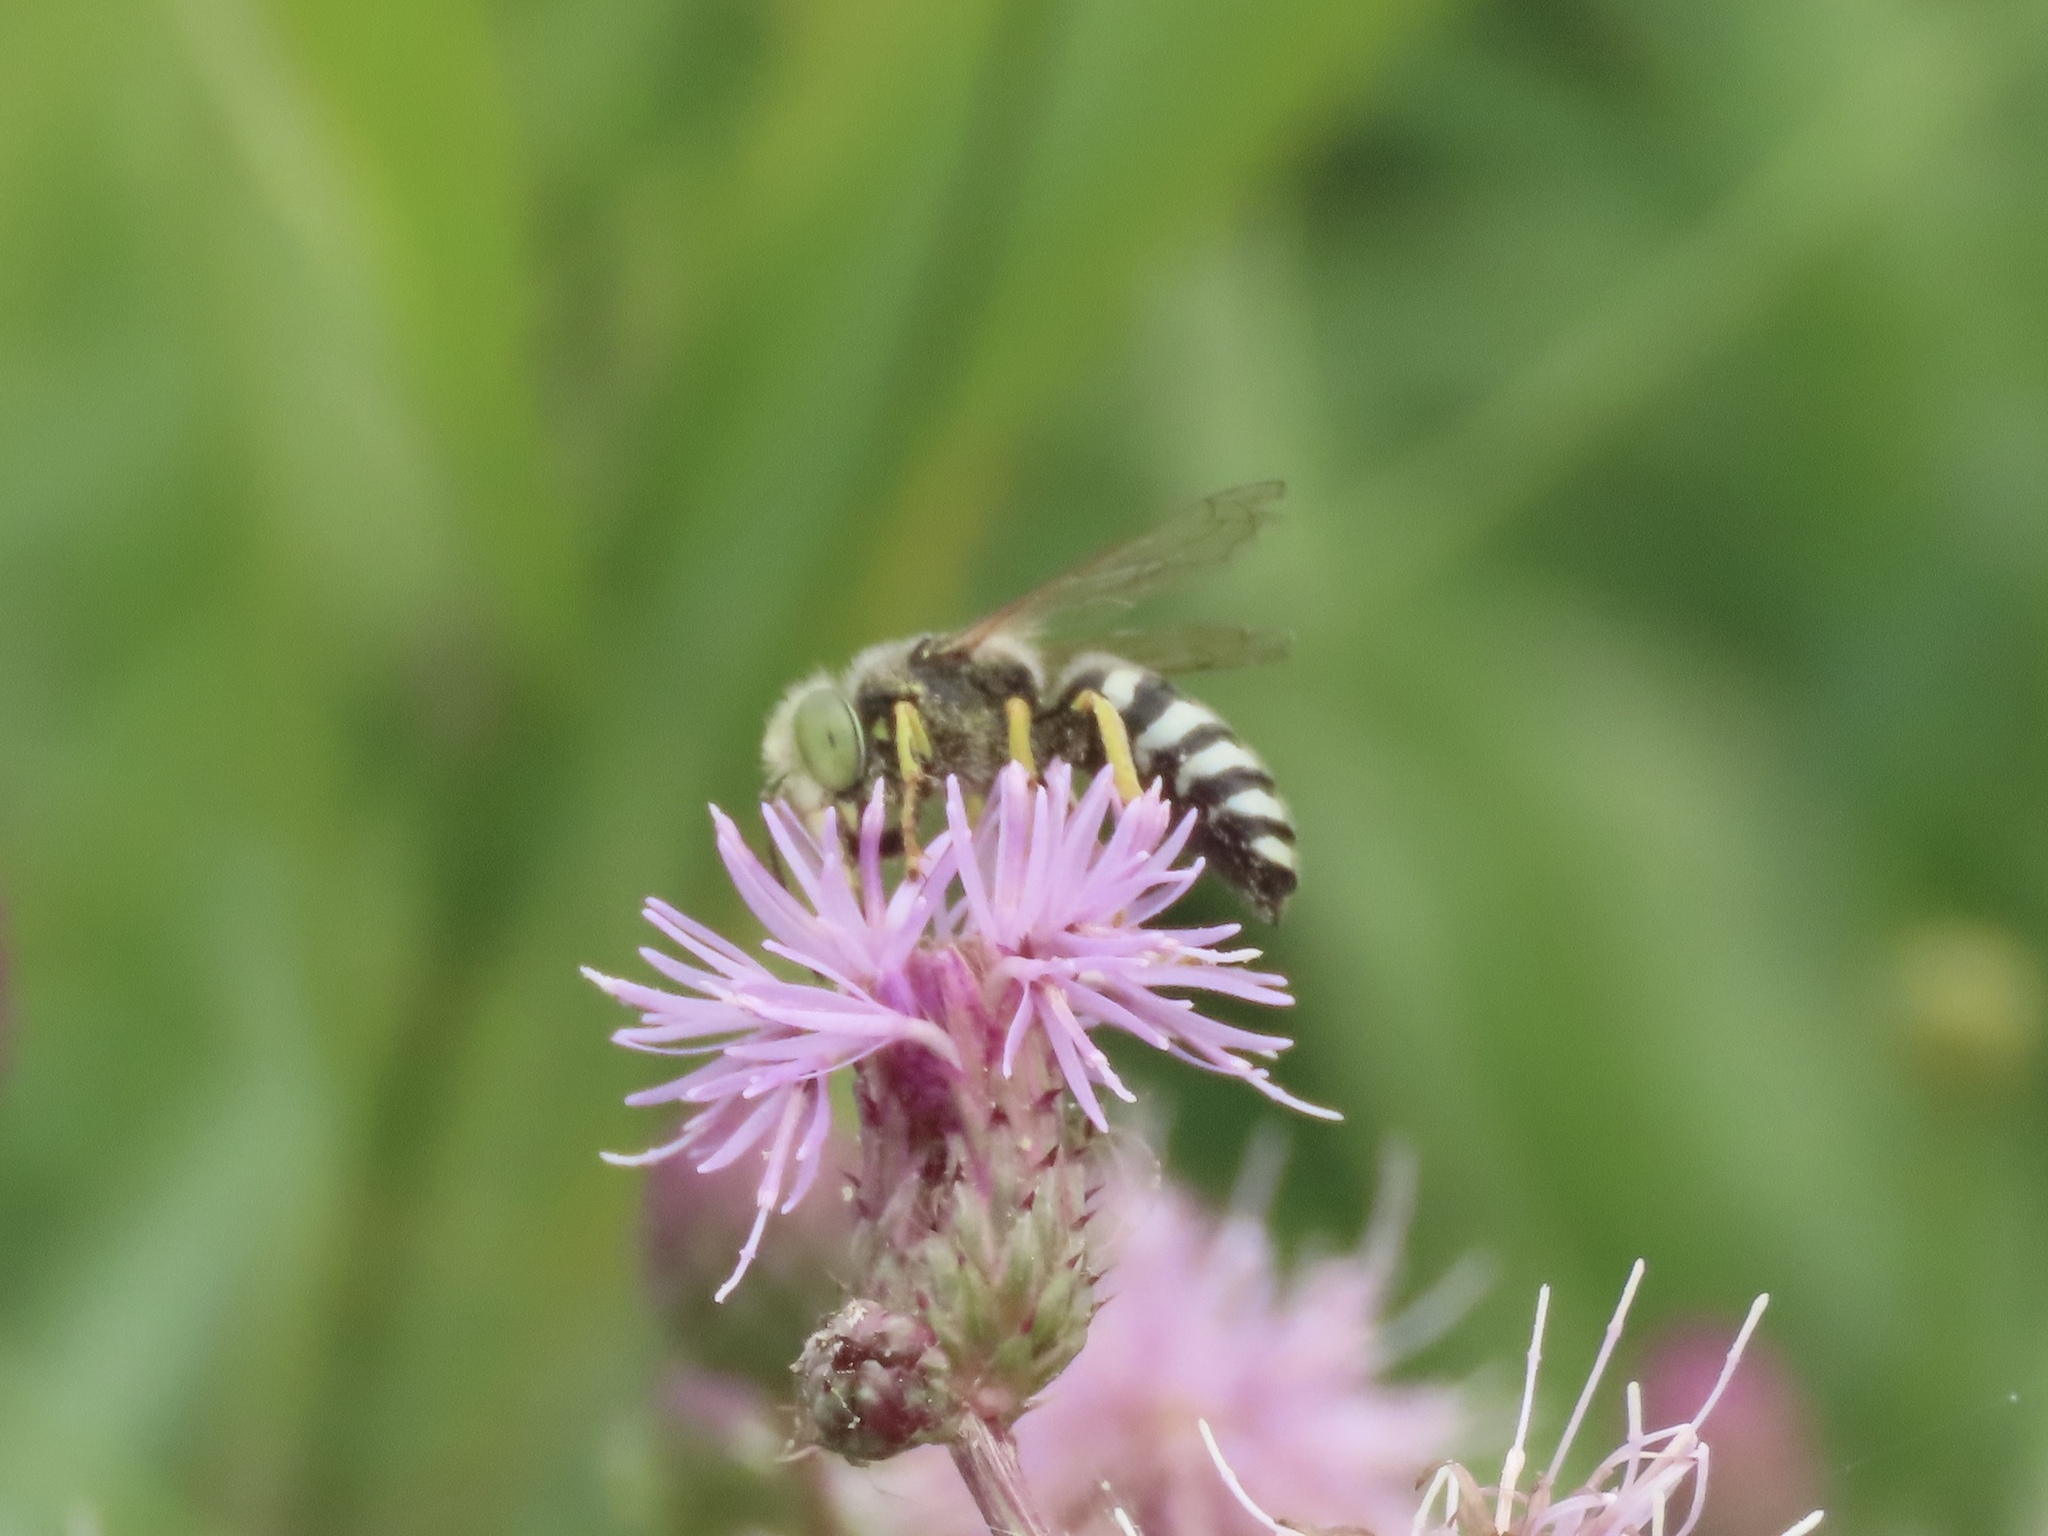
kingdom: Animalia
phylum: Arthropoda
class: Insecta
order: Hymenoptera
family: Crabronidae
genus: Bembix
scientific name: Bembix americana
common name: American sand wasp
